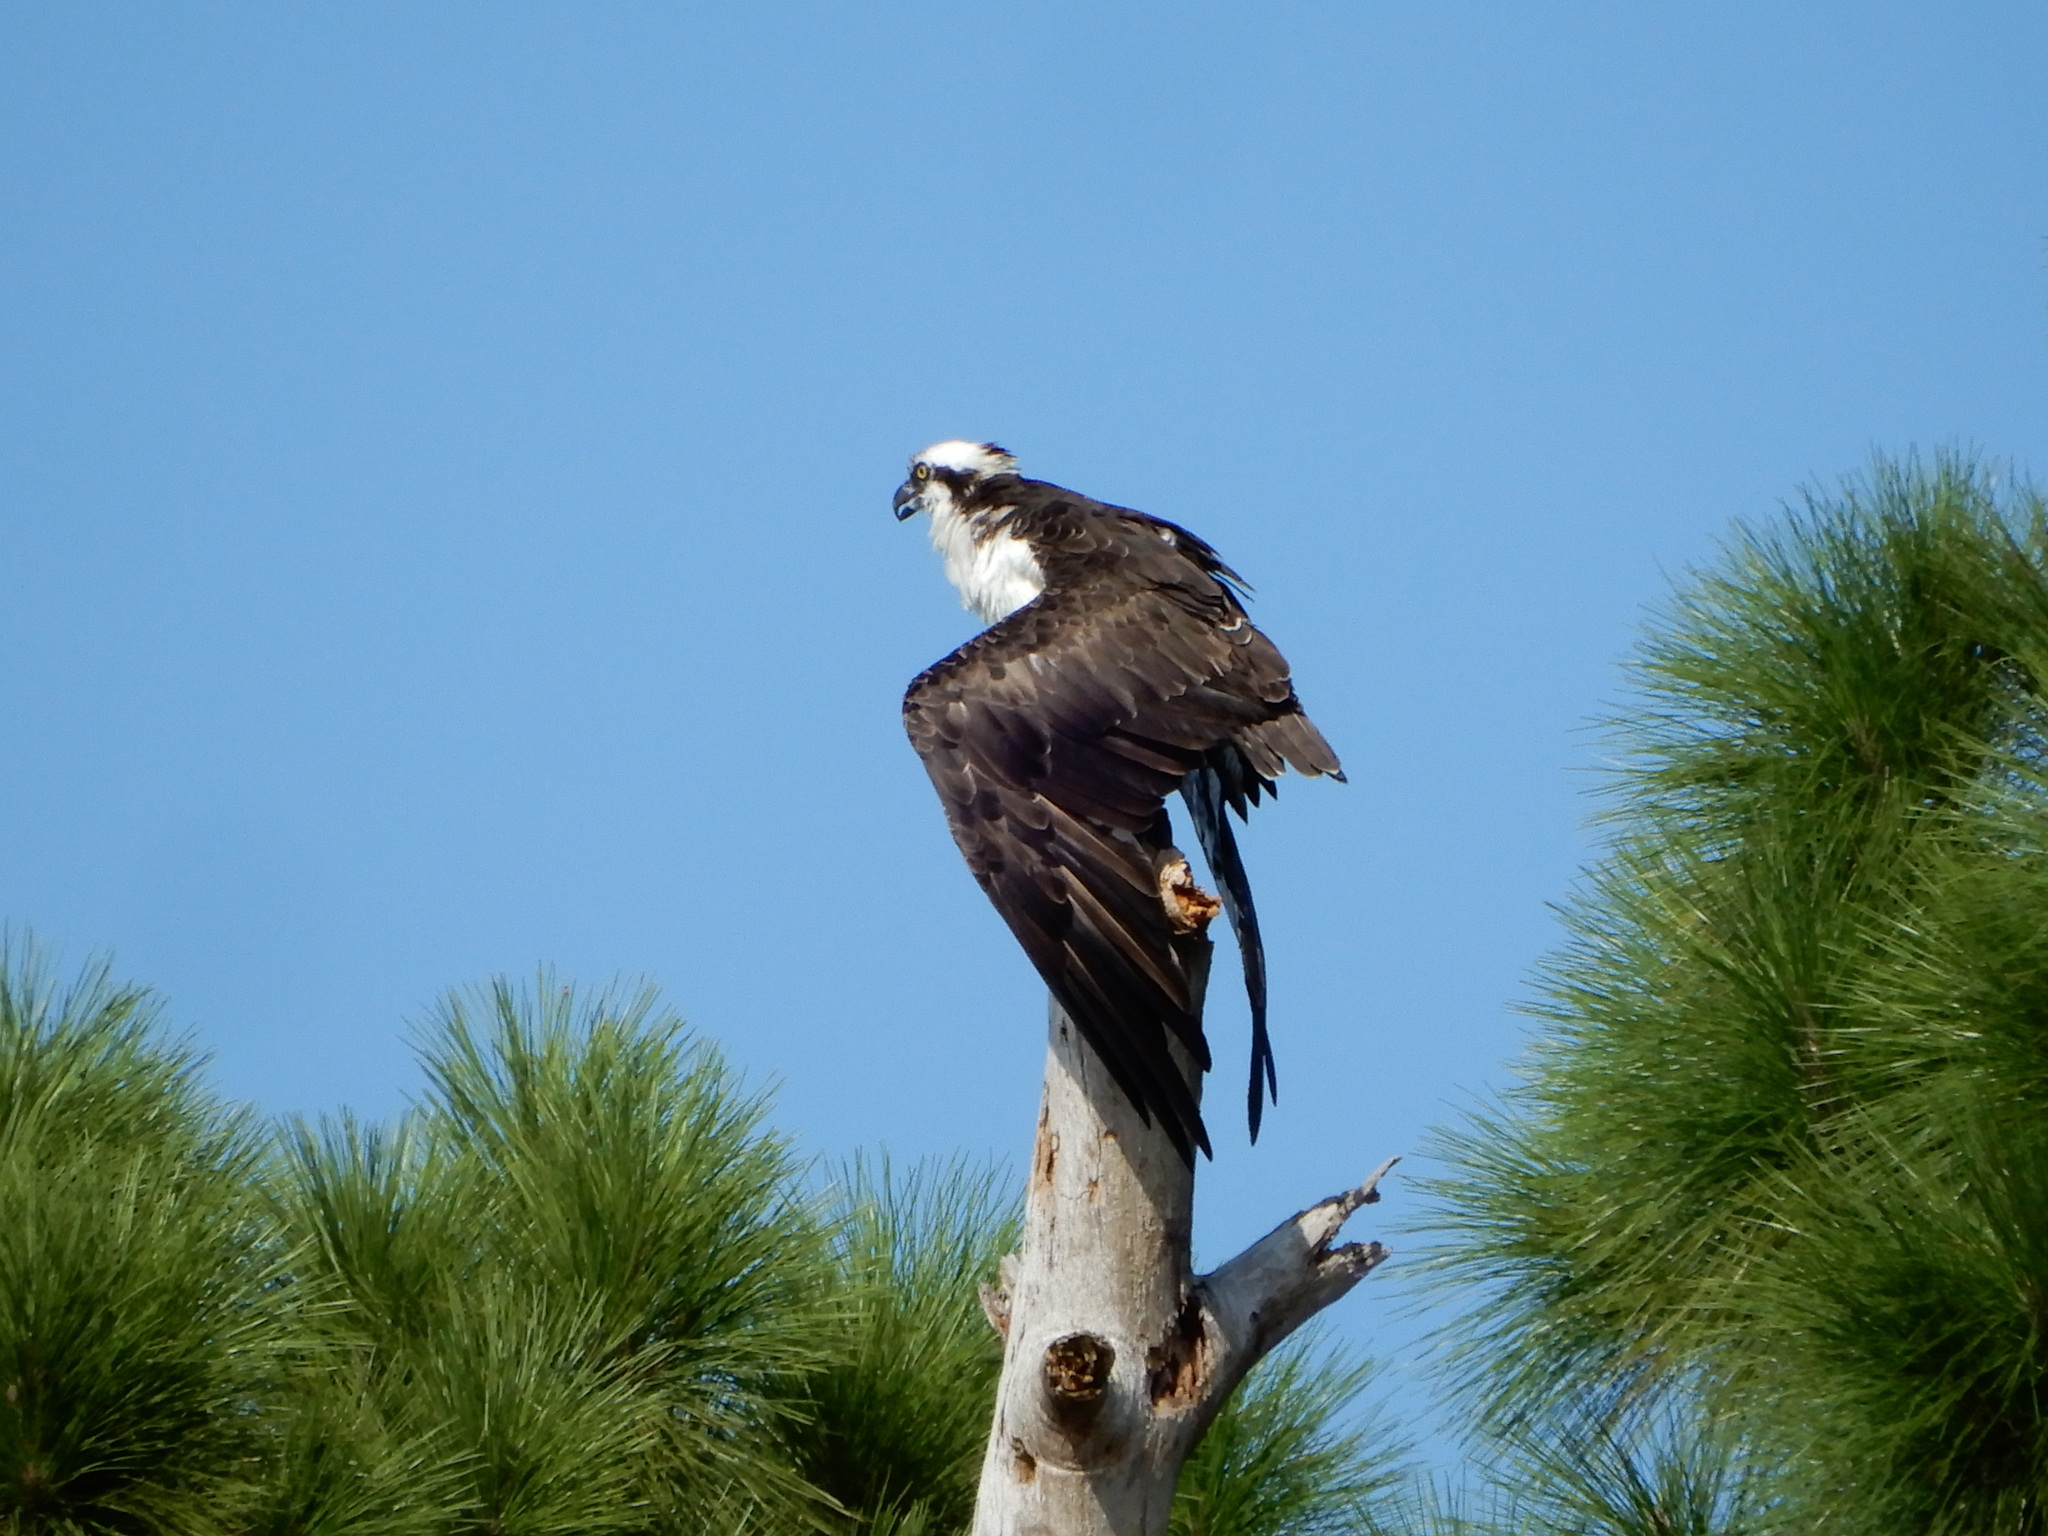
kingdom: Animalia
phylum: Chordata
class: Aves
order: Accipitriformes
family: Pandionidae
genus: Pandion
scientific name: Pandion haliaetus
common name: Osprey
